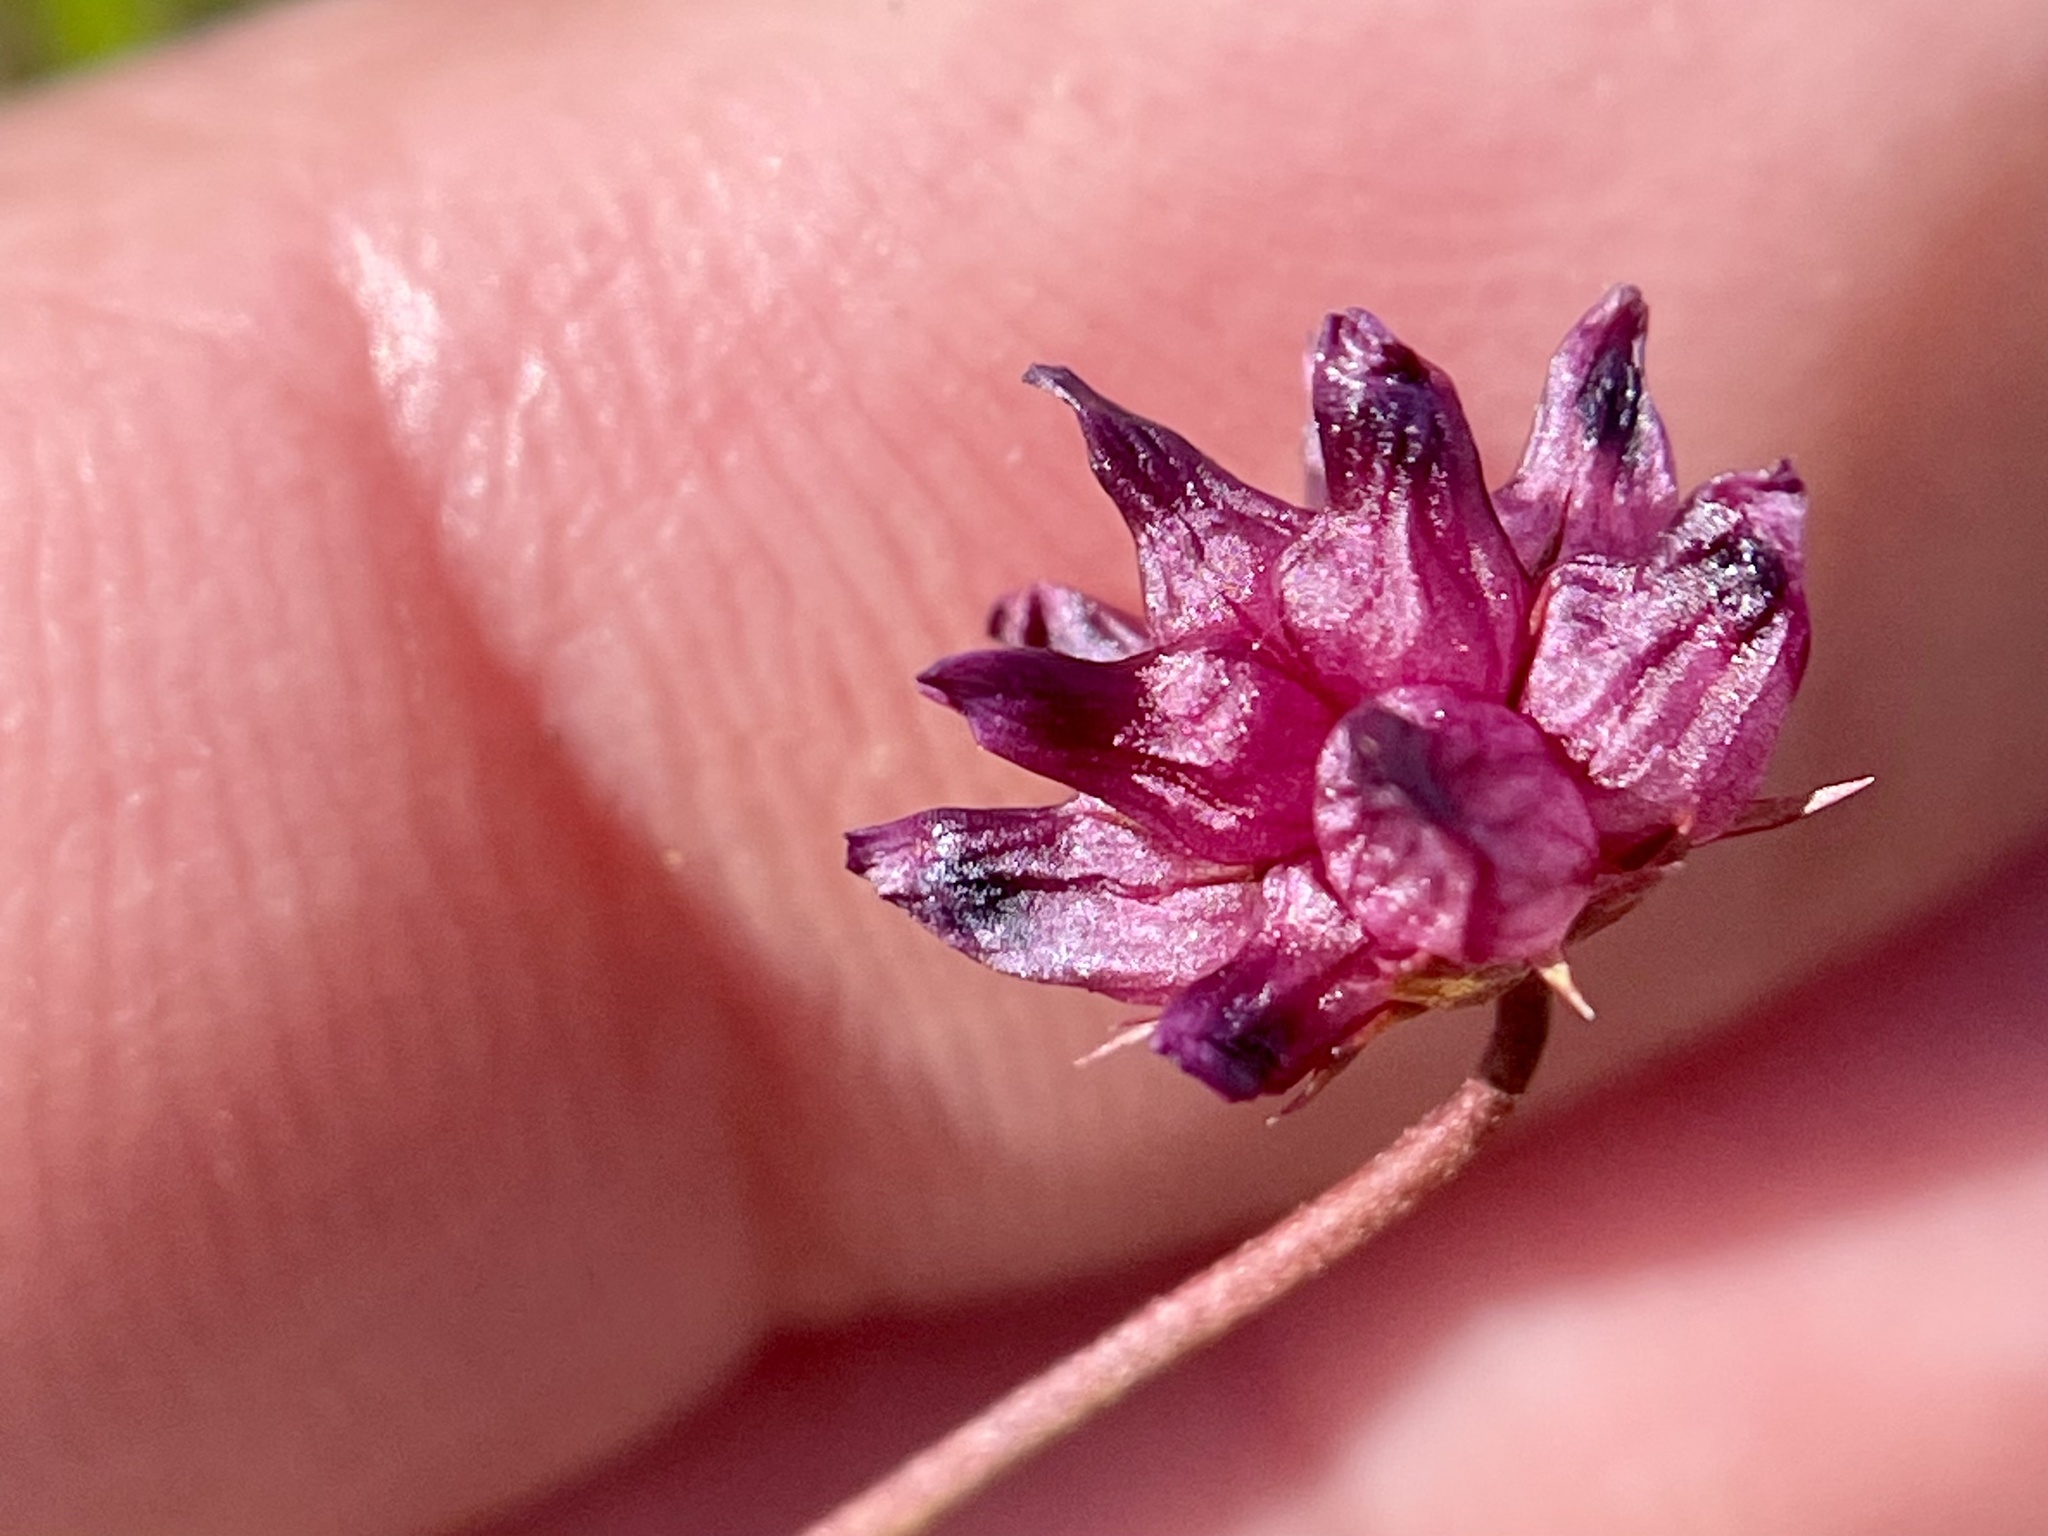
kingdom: Plantae
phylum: Tracheophyta
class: Magnoliopsida
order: Fabales
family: Fabaceae
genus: Trifolium
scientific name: Trifolium depauperatum
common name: Poverty clover
